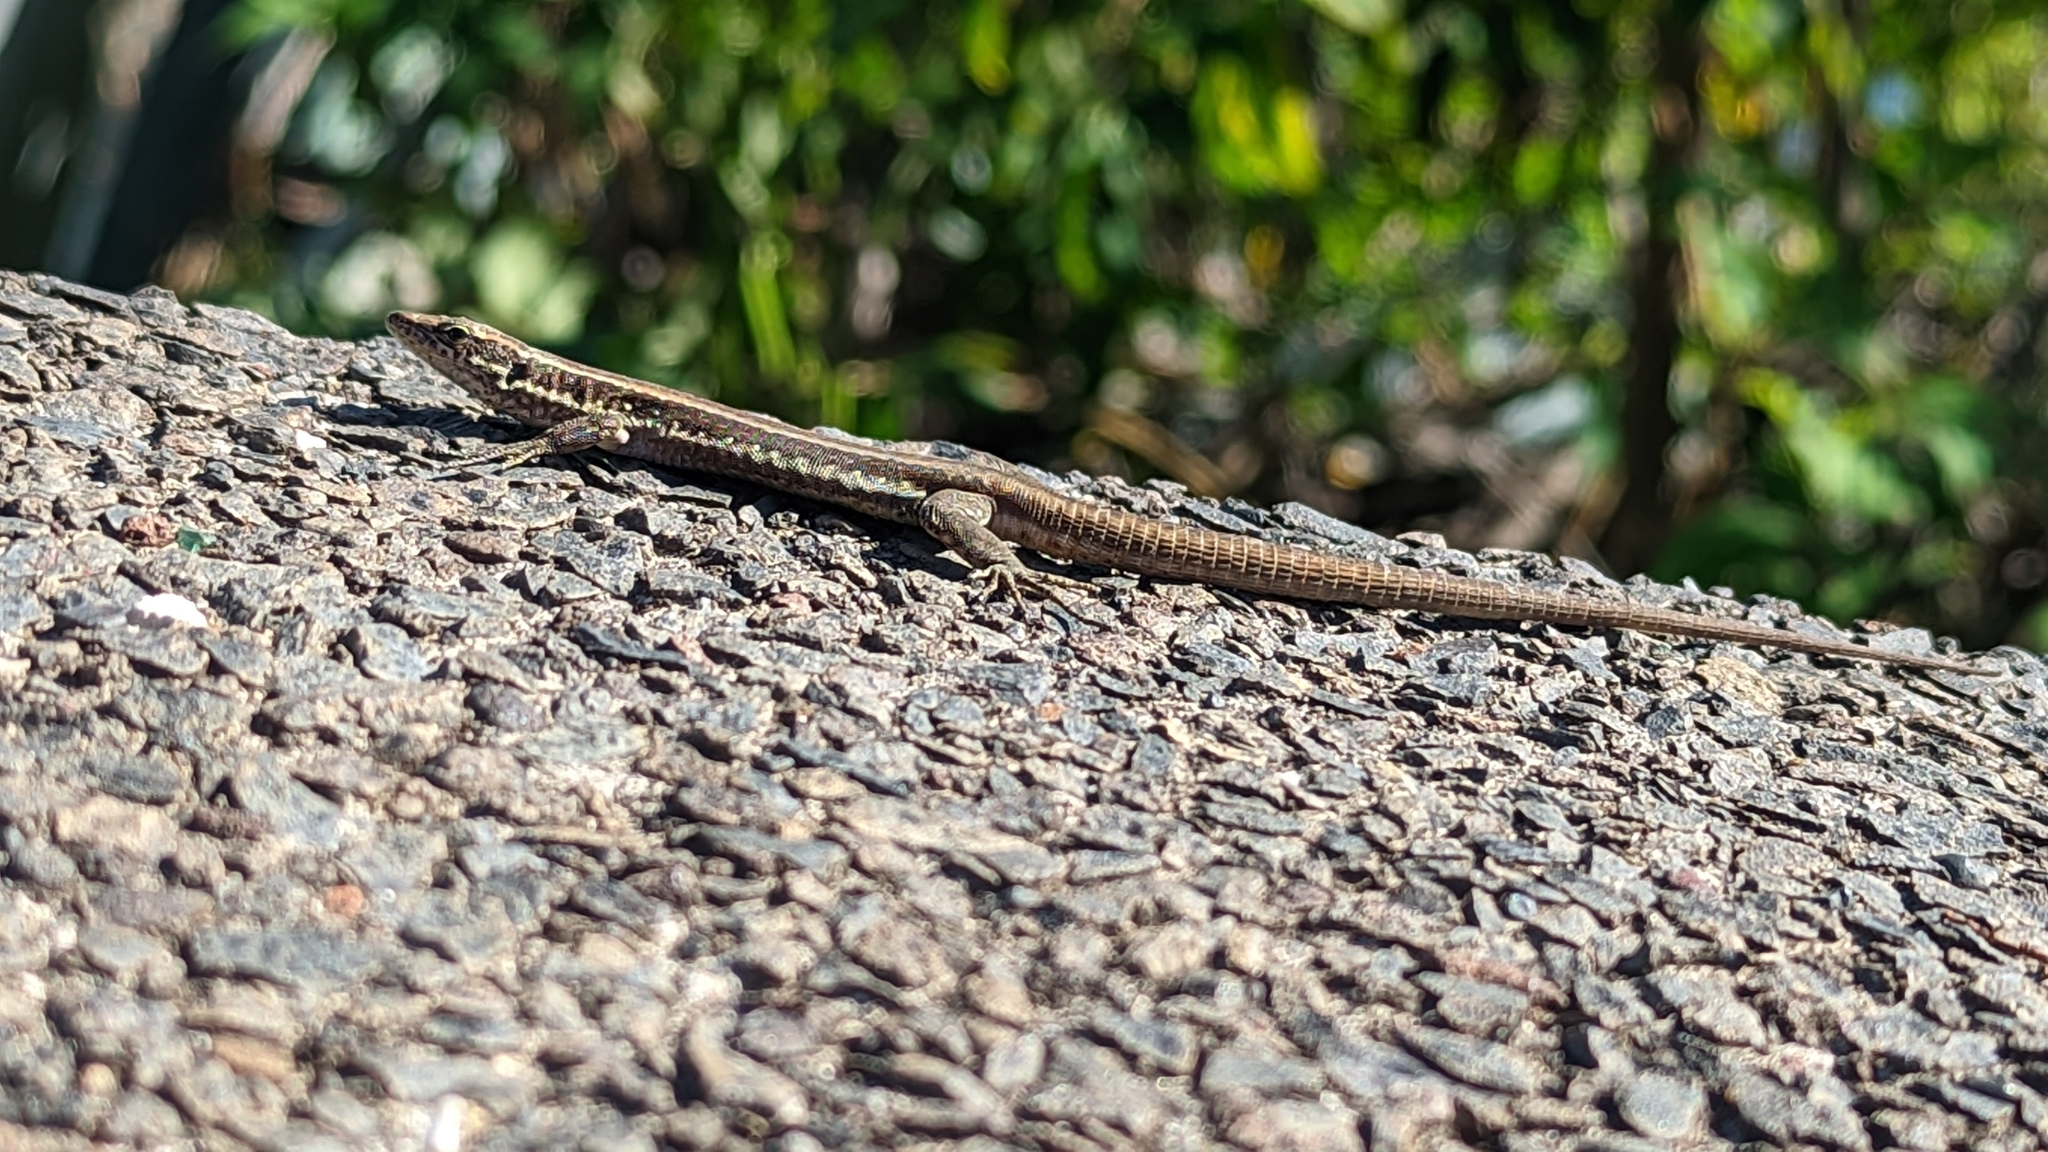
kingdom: Animalia
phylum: Chordata
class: Squamata
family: Lacertidae
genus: Teira
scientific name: Teira dugesii
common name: Madeira lizard
